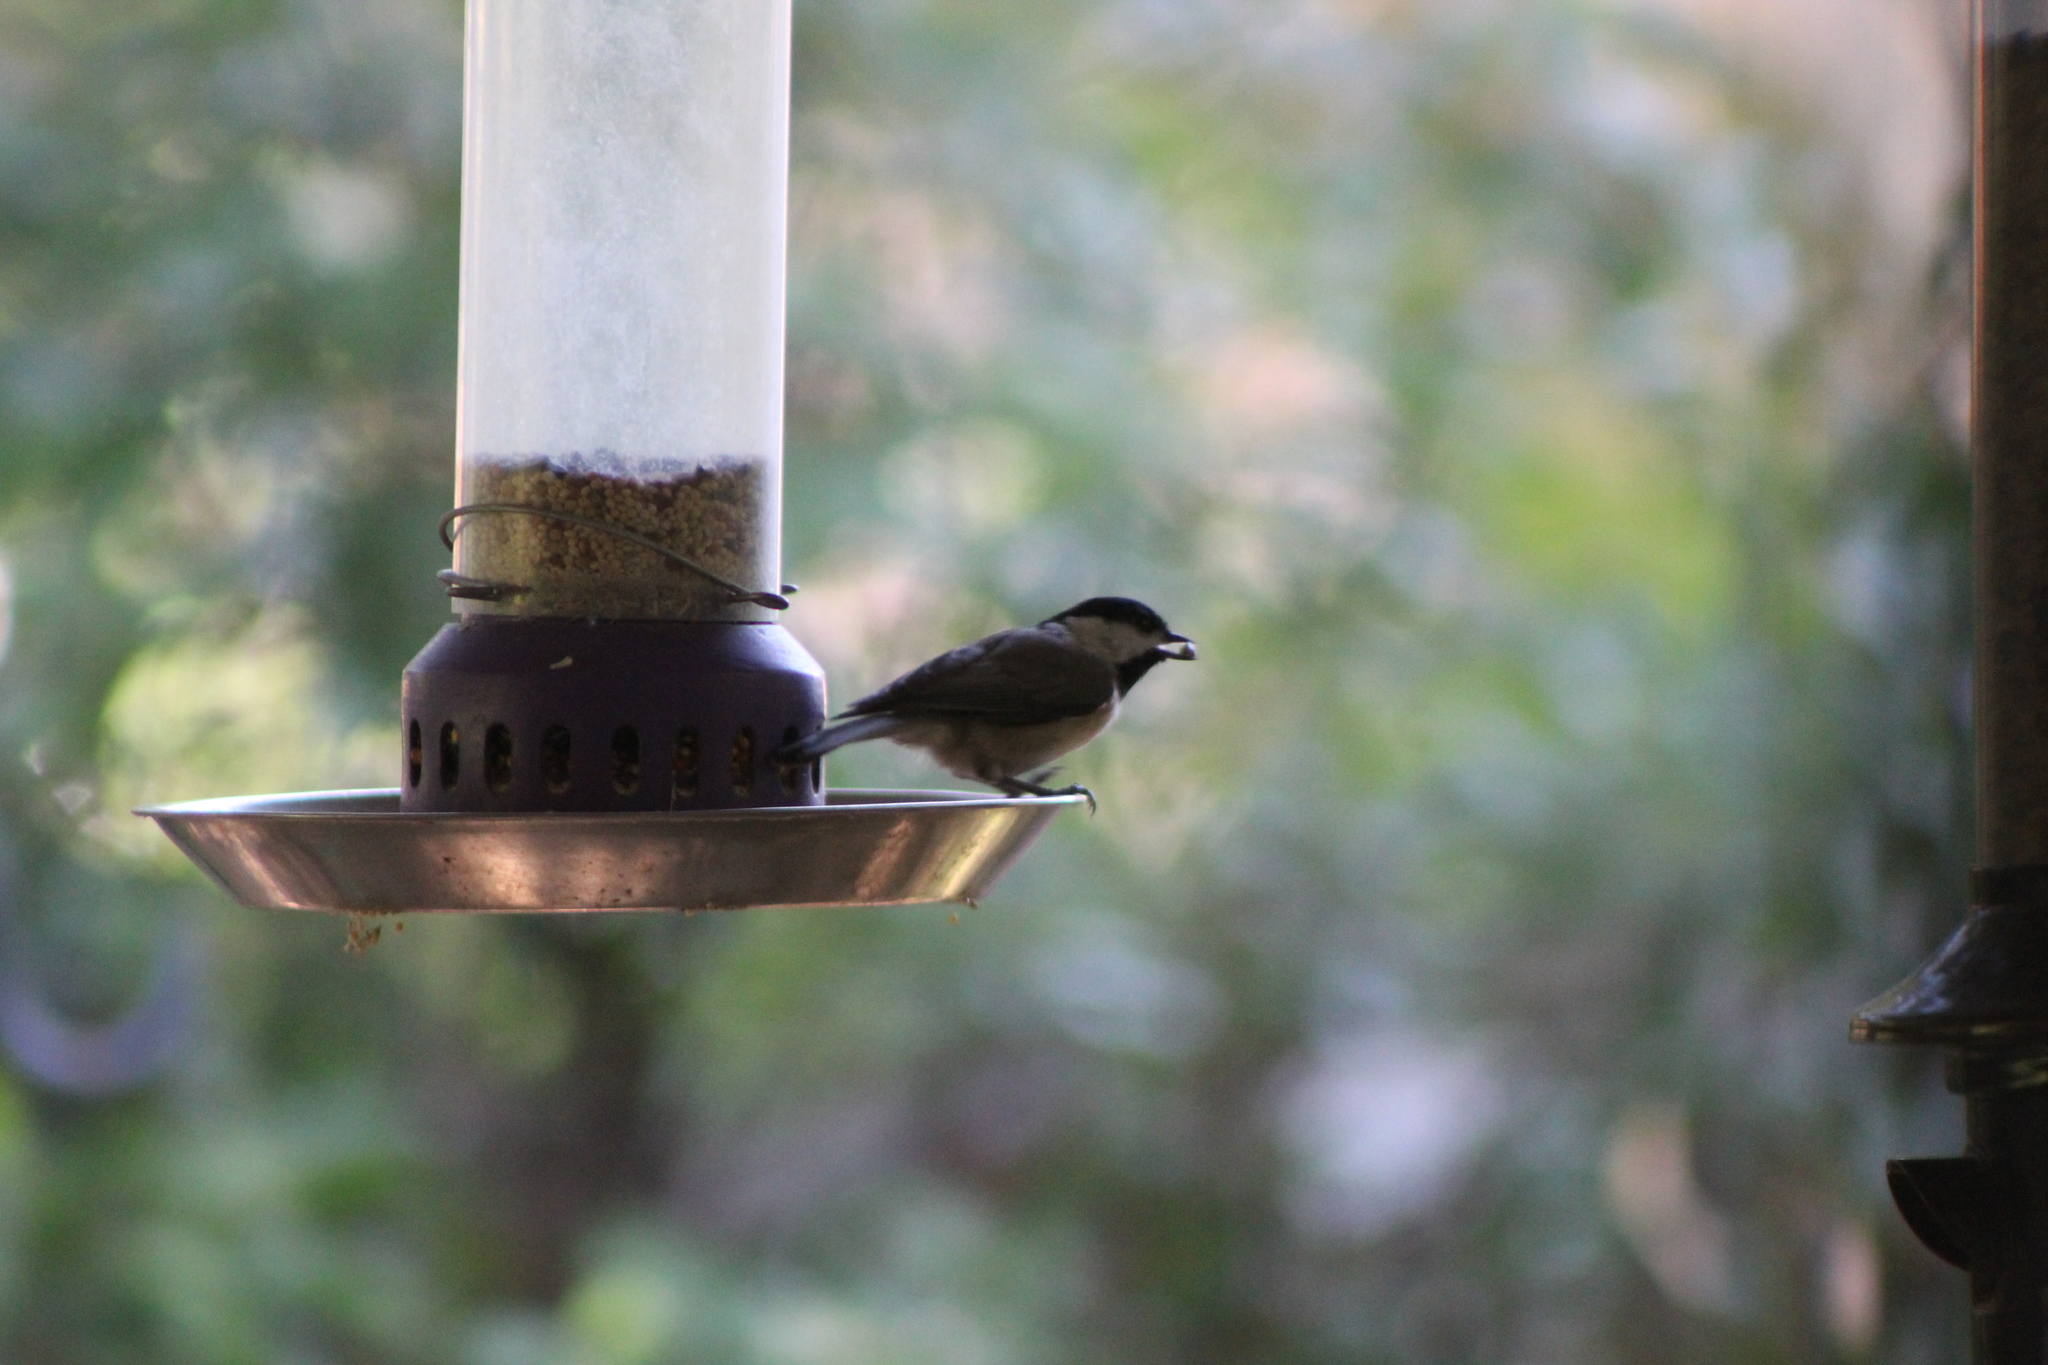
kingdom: Animalia
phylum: Chordata
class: Aves
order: Passeriformes
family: Paridae
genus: Poecile
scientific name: Poecile carolinensis
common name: Carolina chickadee
